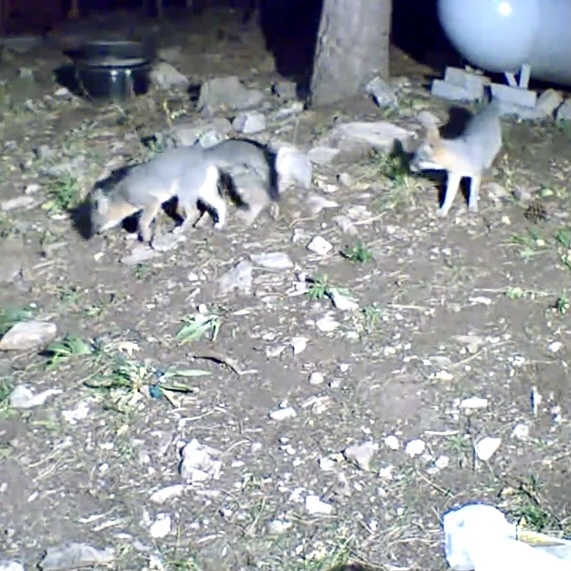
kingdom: Animalia
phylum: Chordata
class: Mammalia
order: Carnivora
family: Canidae
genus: Urocyon
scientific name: Urocyon cinereoargenteus
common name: Gray fox
